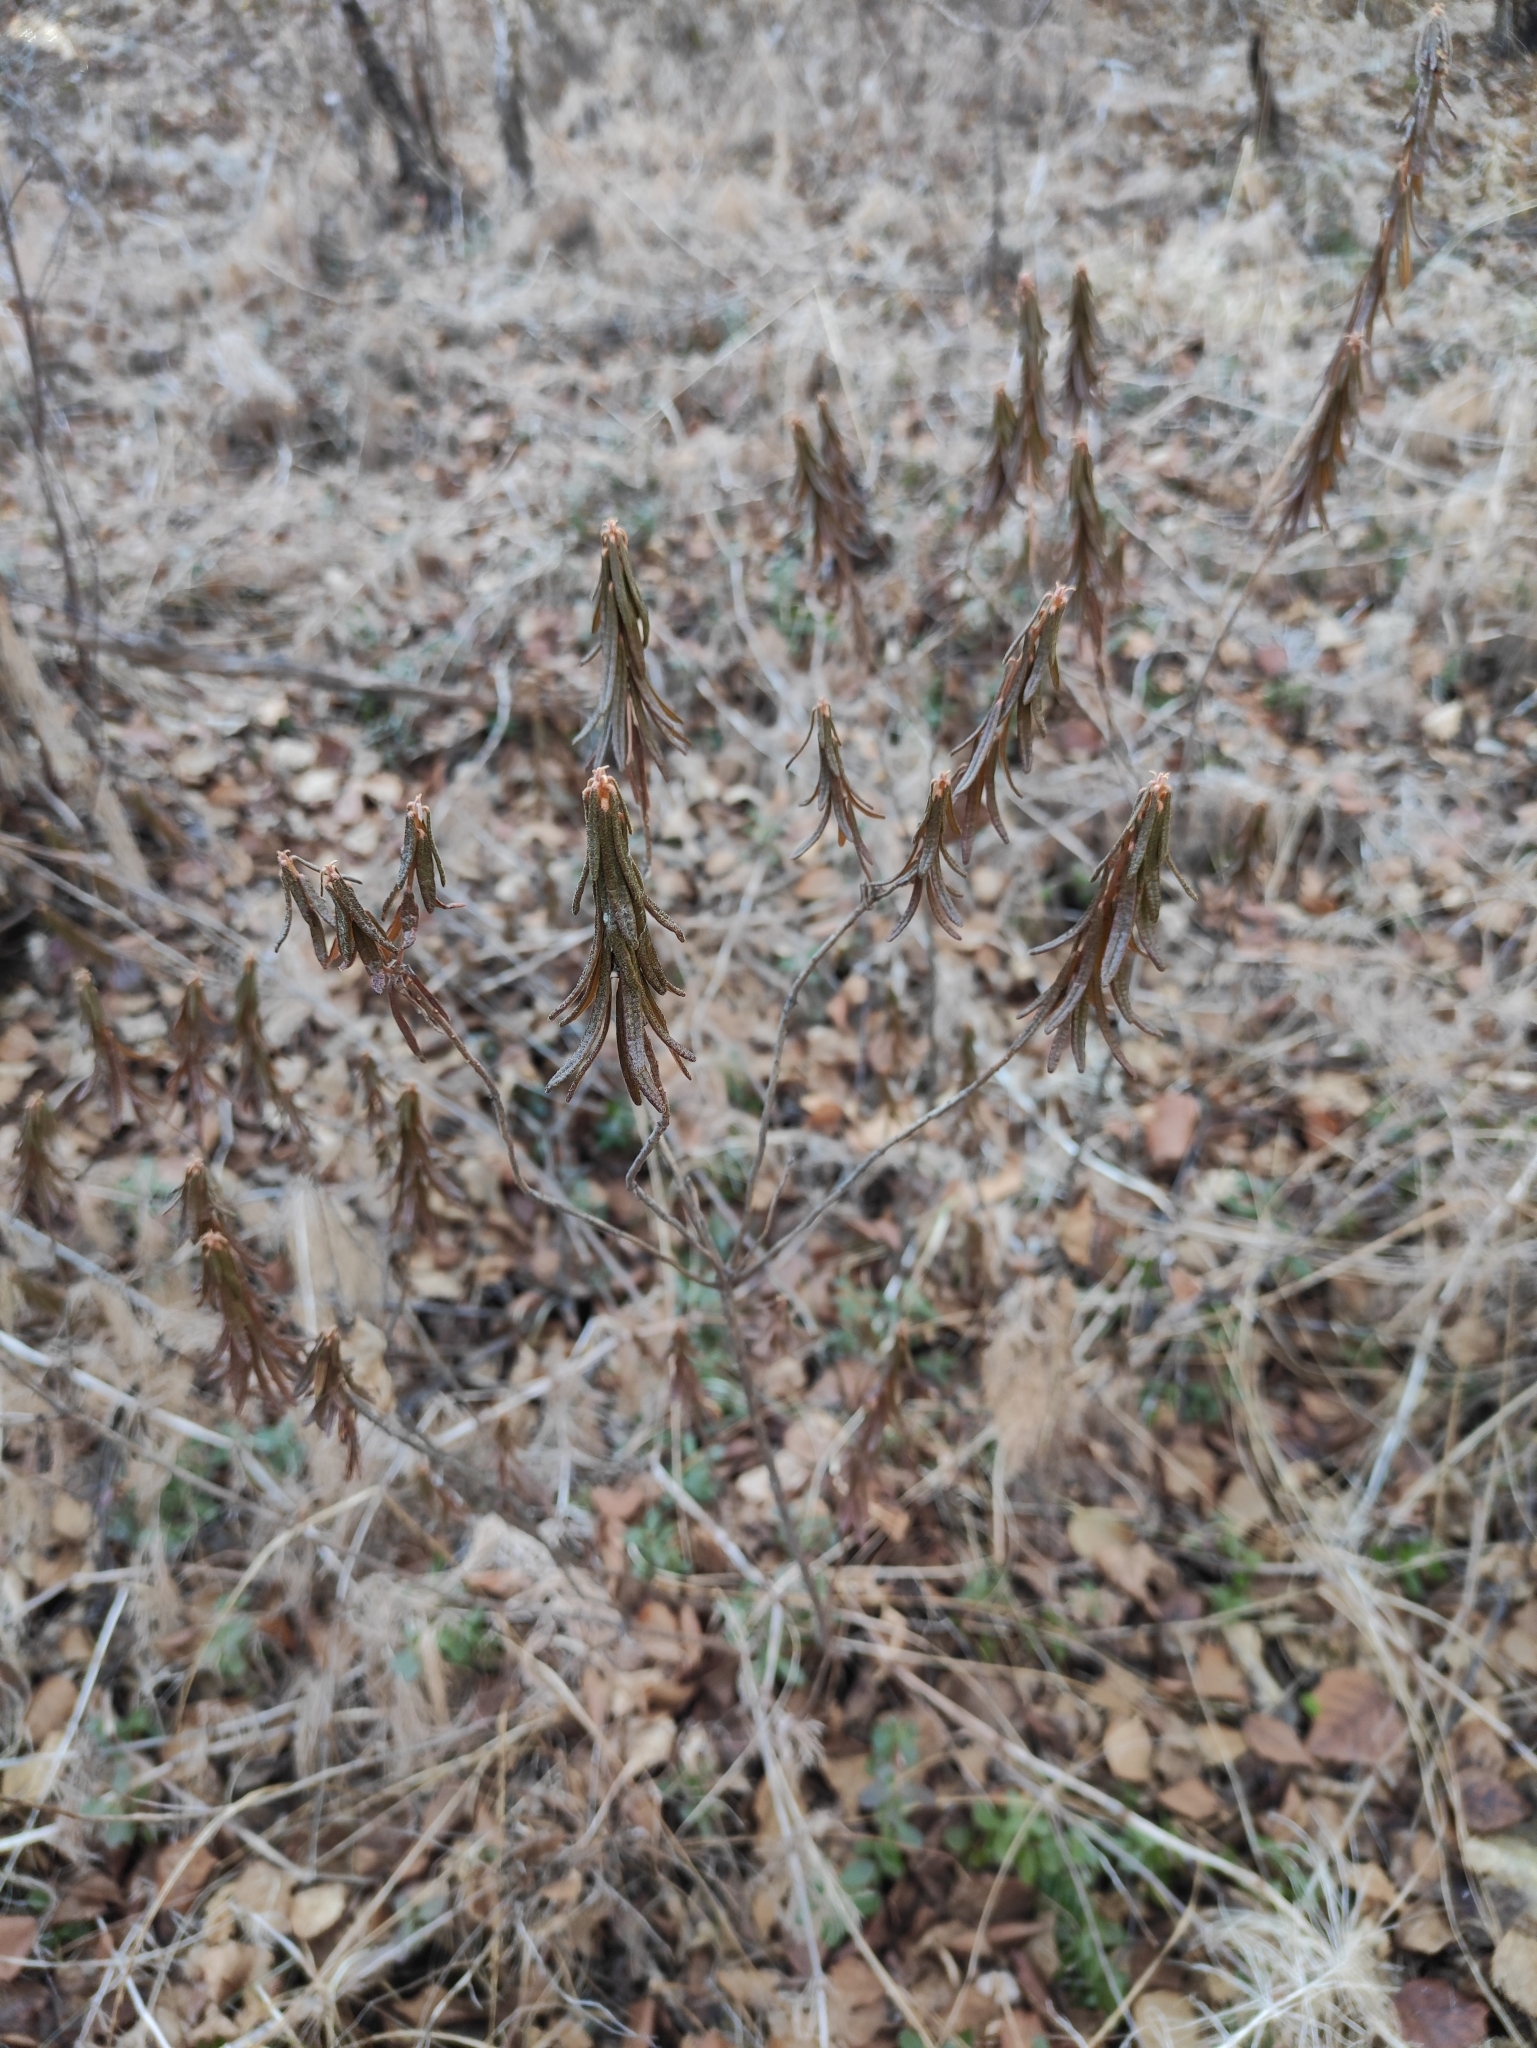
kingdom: Plantae
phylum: Tracheophyta
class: Magnoliopsida
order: Ericales
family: Ericaceae
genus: Rhododendron
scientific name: Rhododendron tomentosum
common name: Marsh labrador tea
